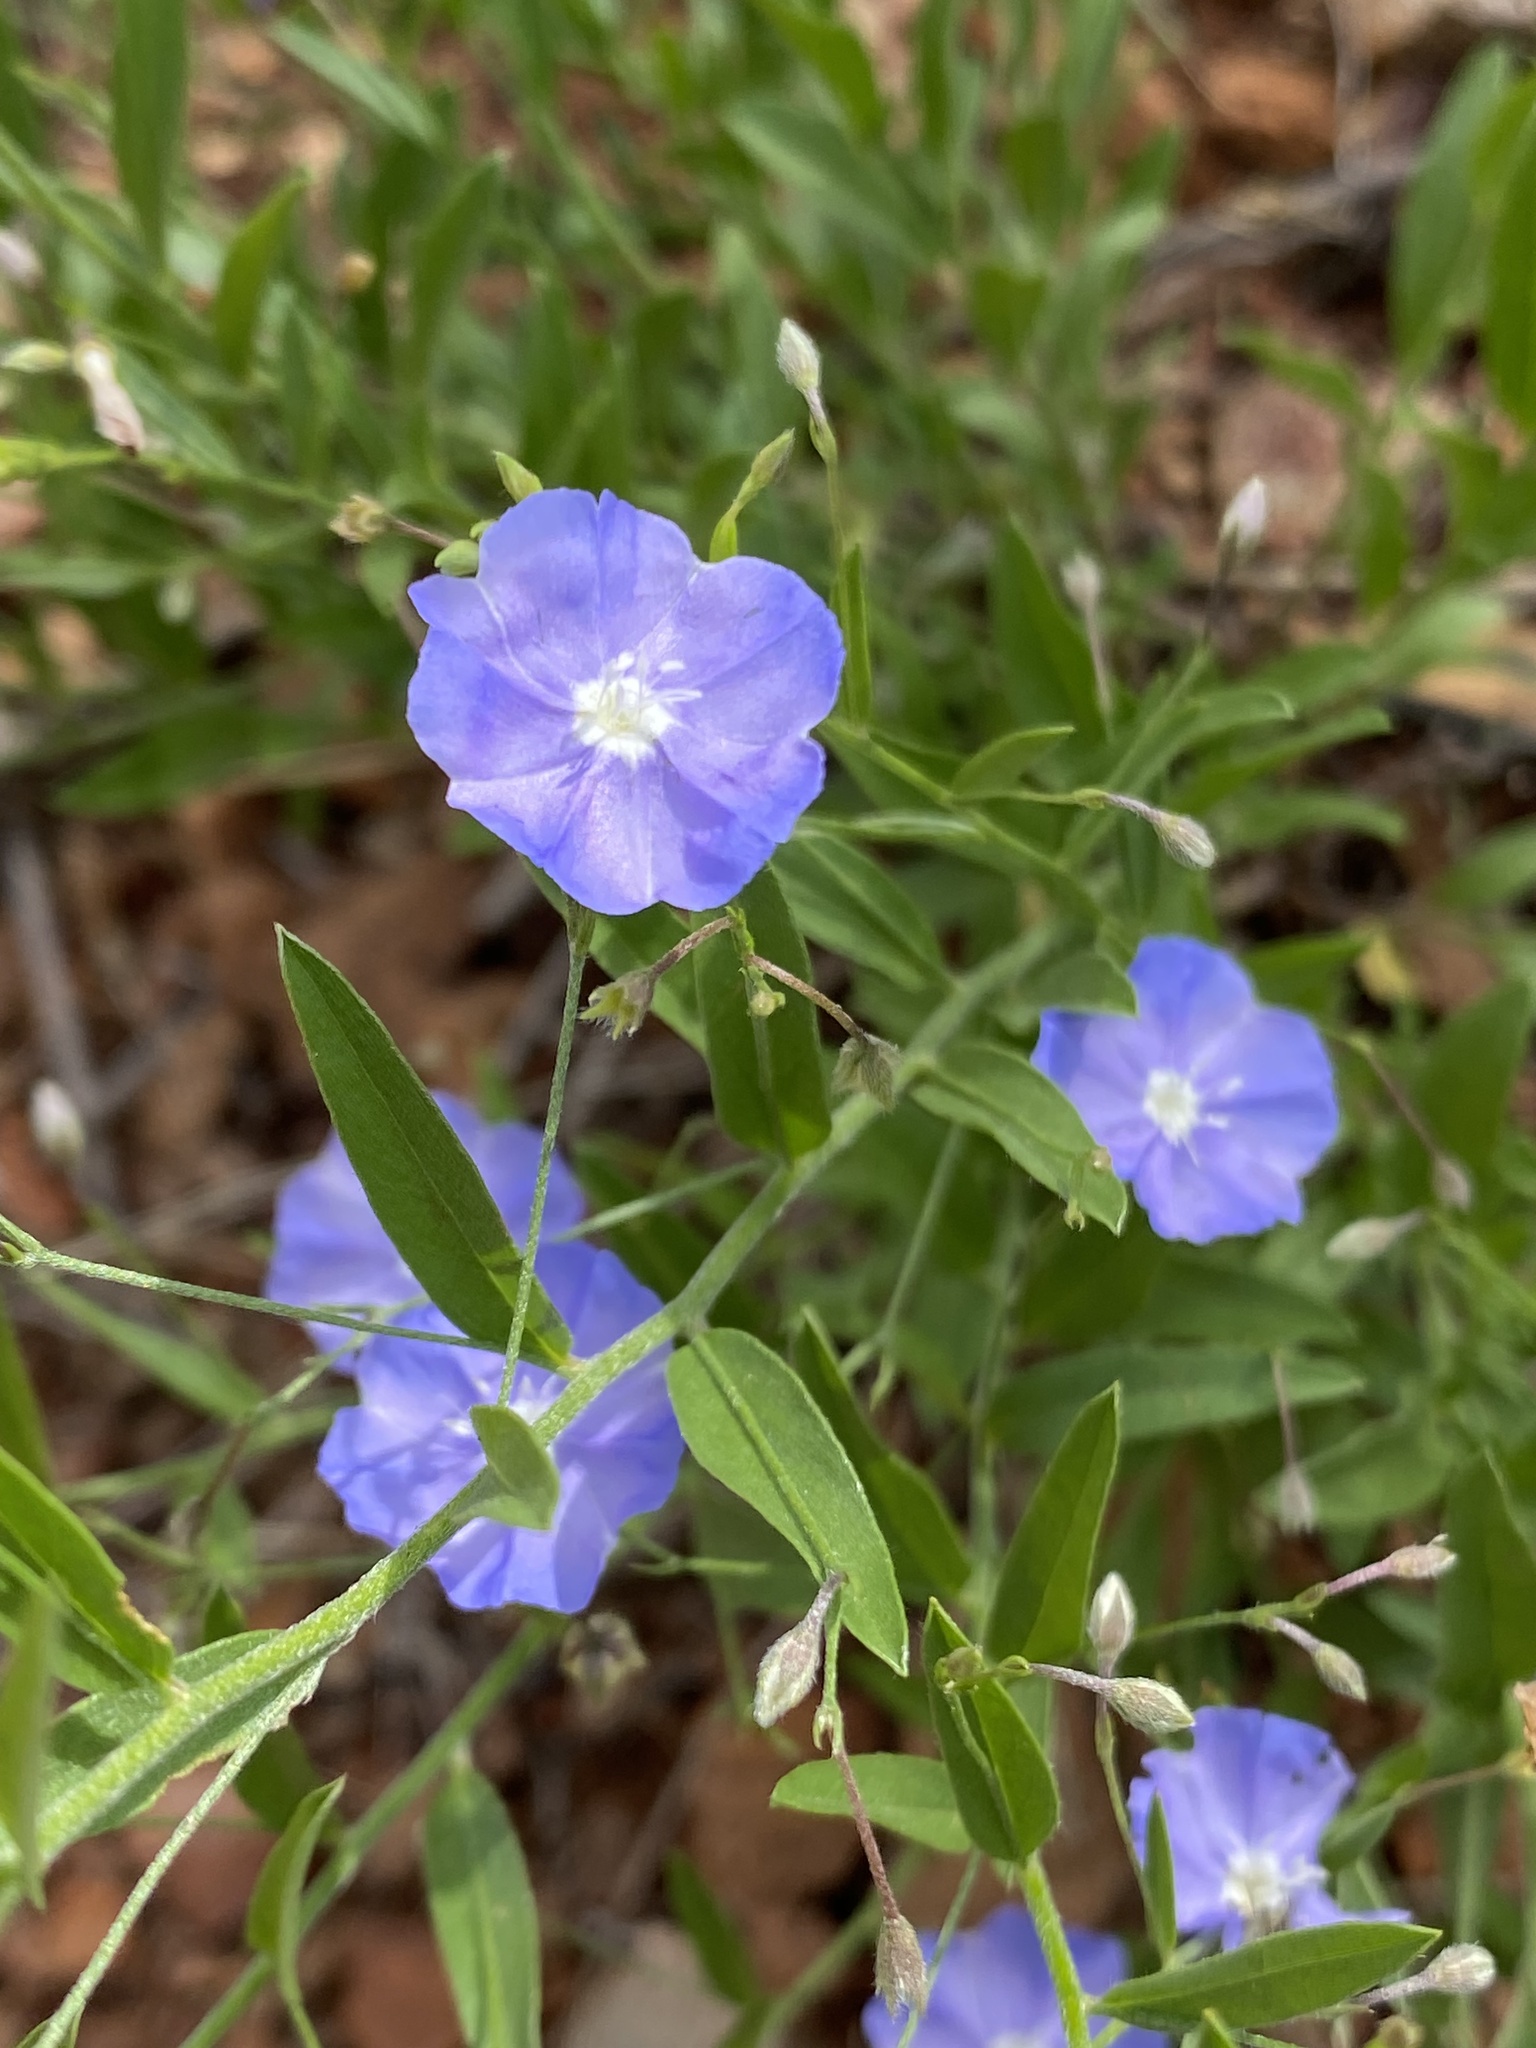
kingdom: Plantae
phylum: Tracheophyta
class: Magnoliopsida
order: Solanales
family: Convolvulaceae
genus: Evolvulus
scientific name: Evolvulus arizonicus
